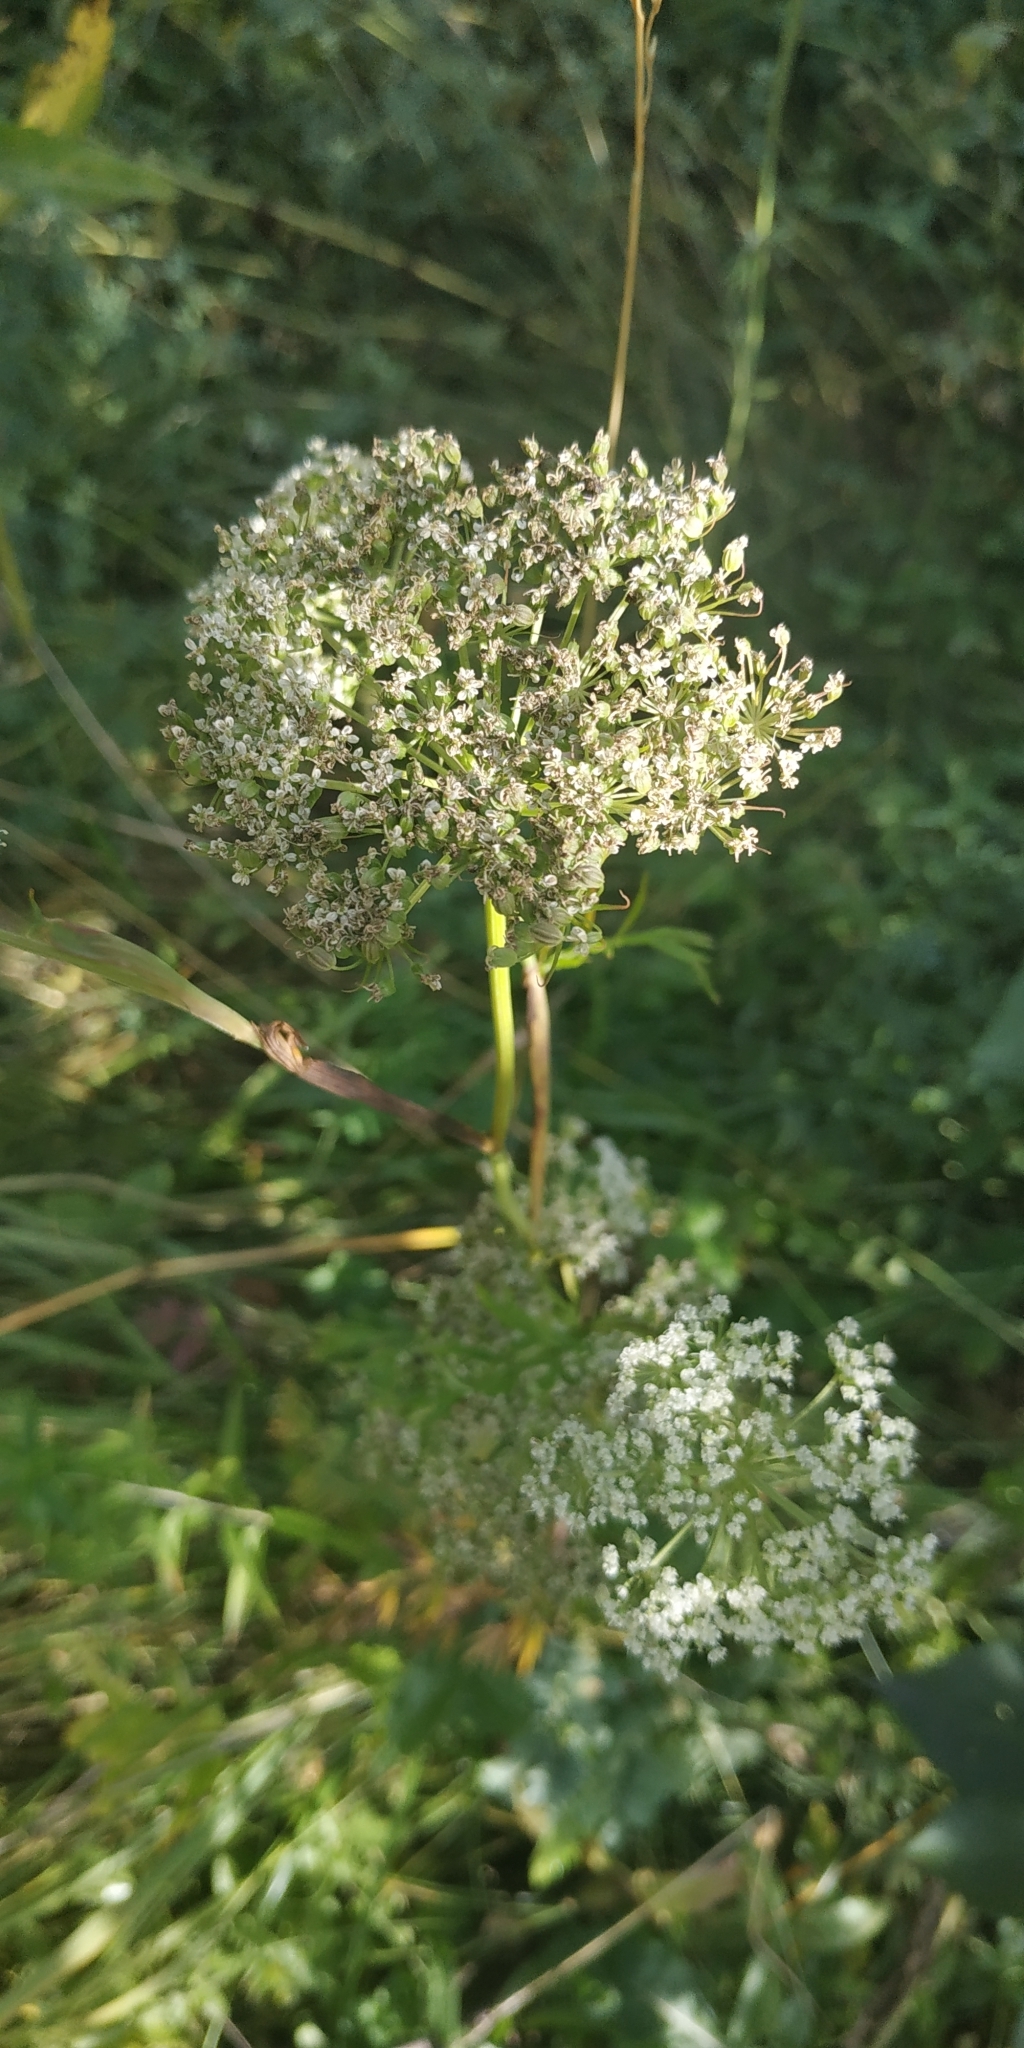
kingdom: Plantae
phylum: Tracheophyta
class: Magnoliopsida
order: Apiales
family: Apiaceae
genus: Kadenia
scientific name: Kadenia dubia
